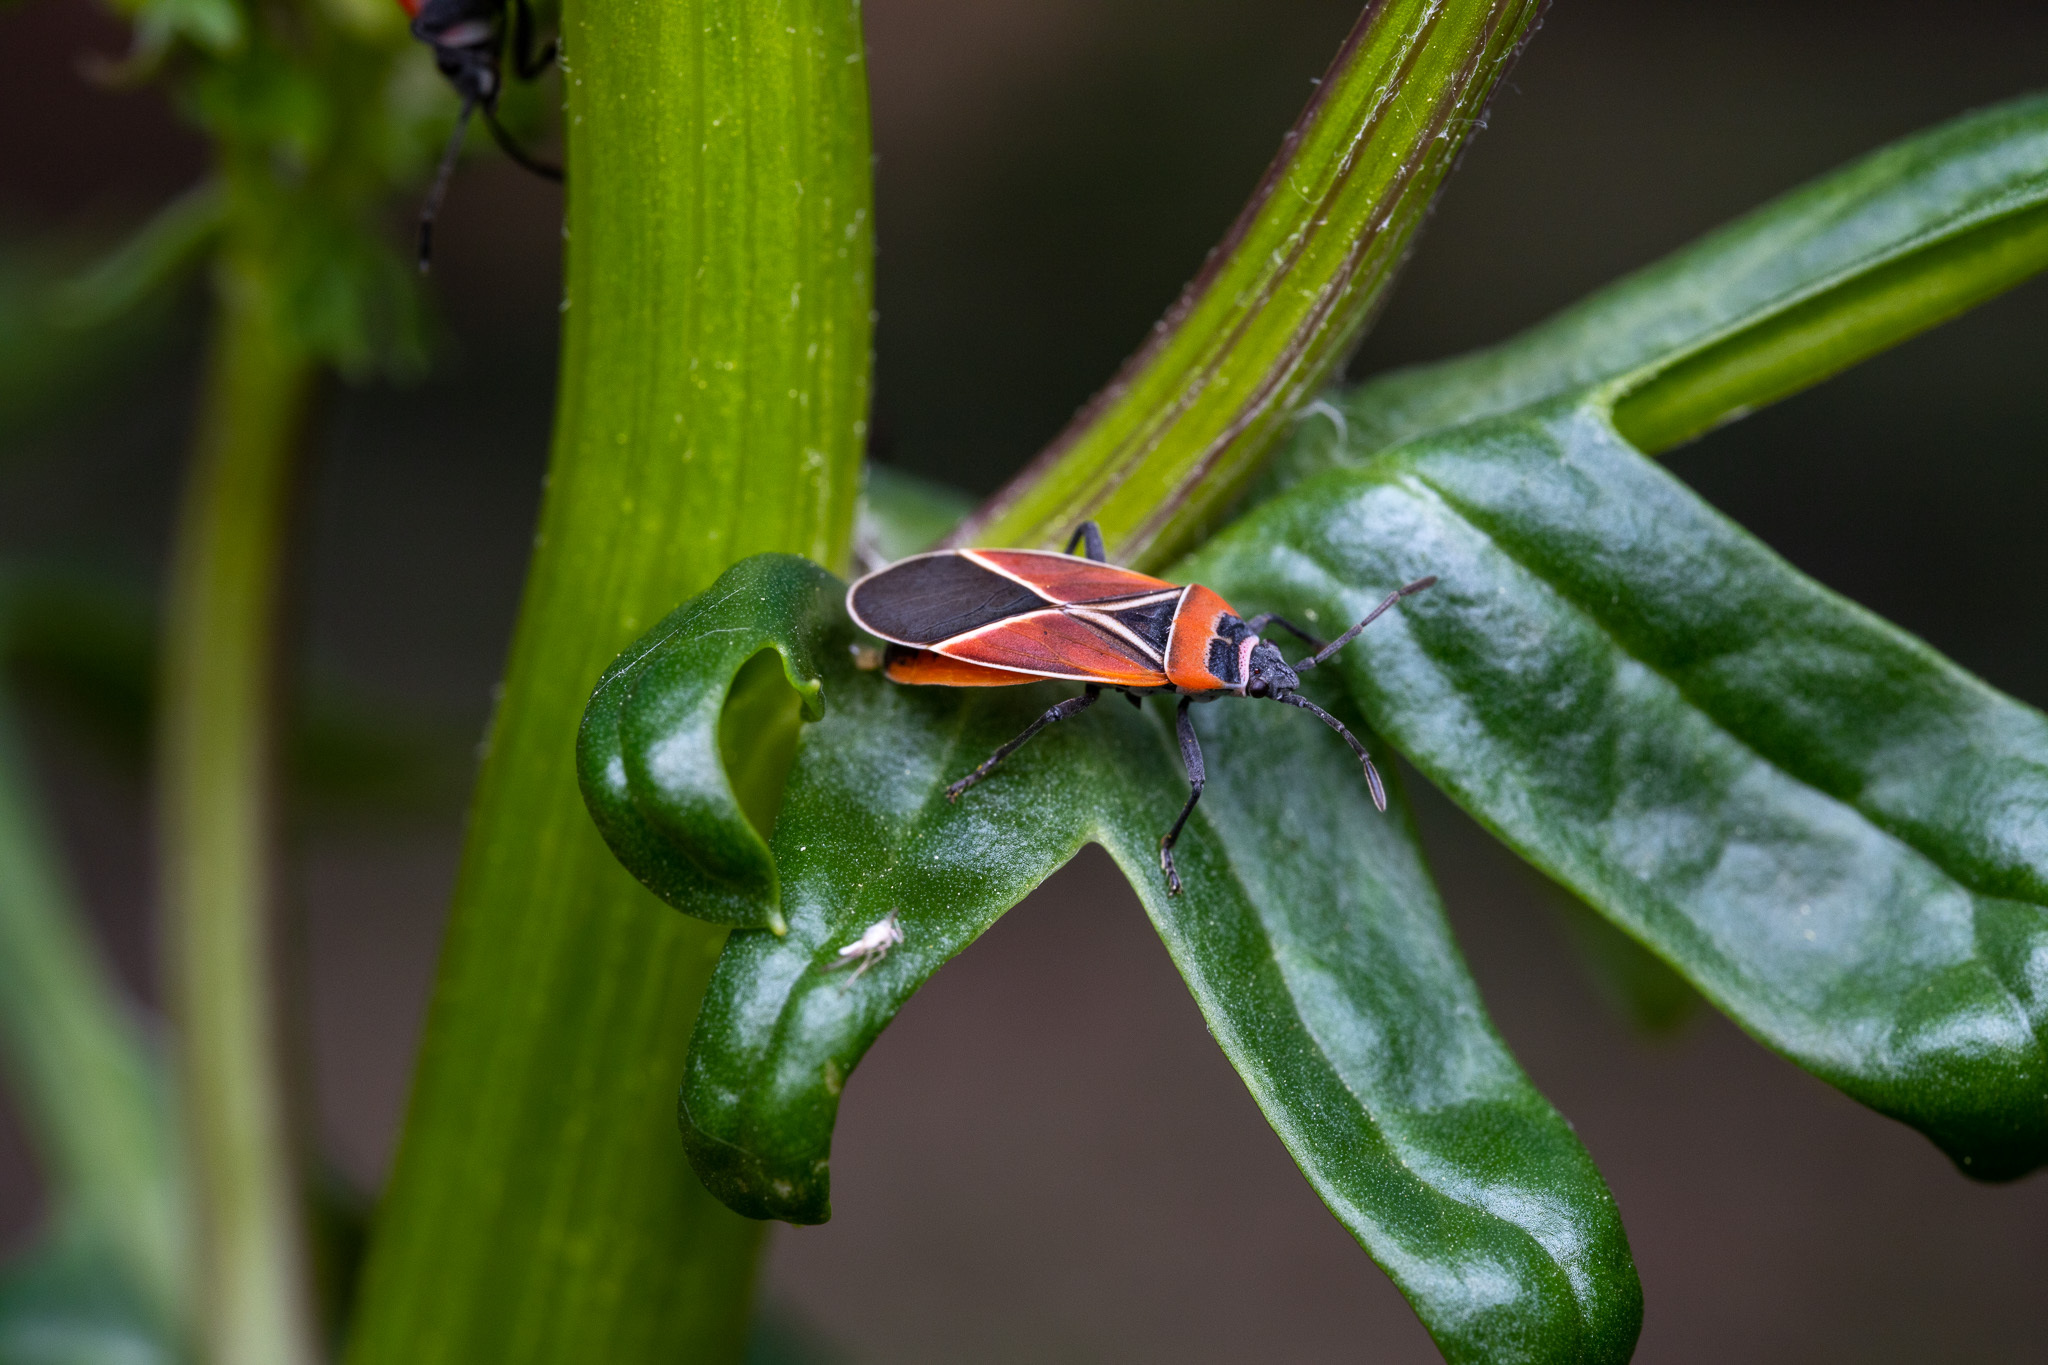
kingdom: Animalia
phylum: Arthropoda
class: Insecta
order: Hemiptera
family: Lygaeidae
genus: Neacoryphus
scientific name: Neacoryphus bicrucis
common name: Lygaeid bug
